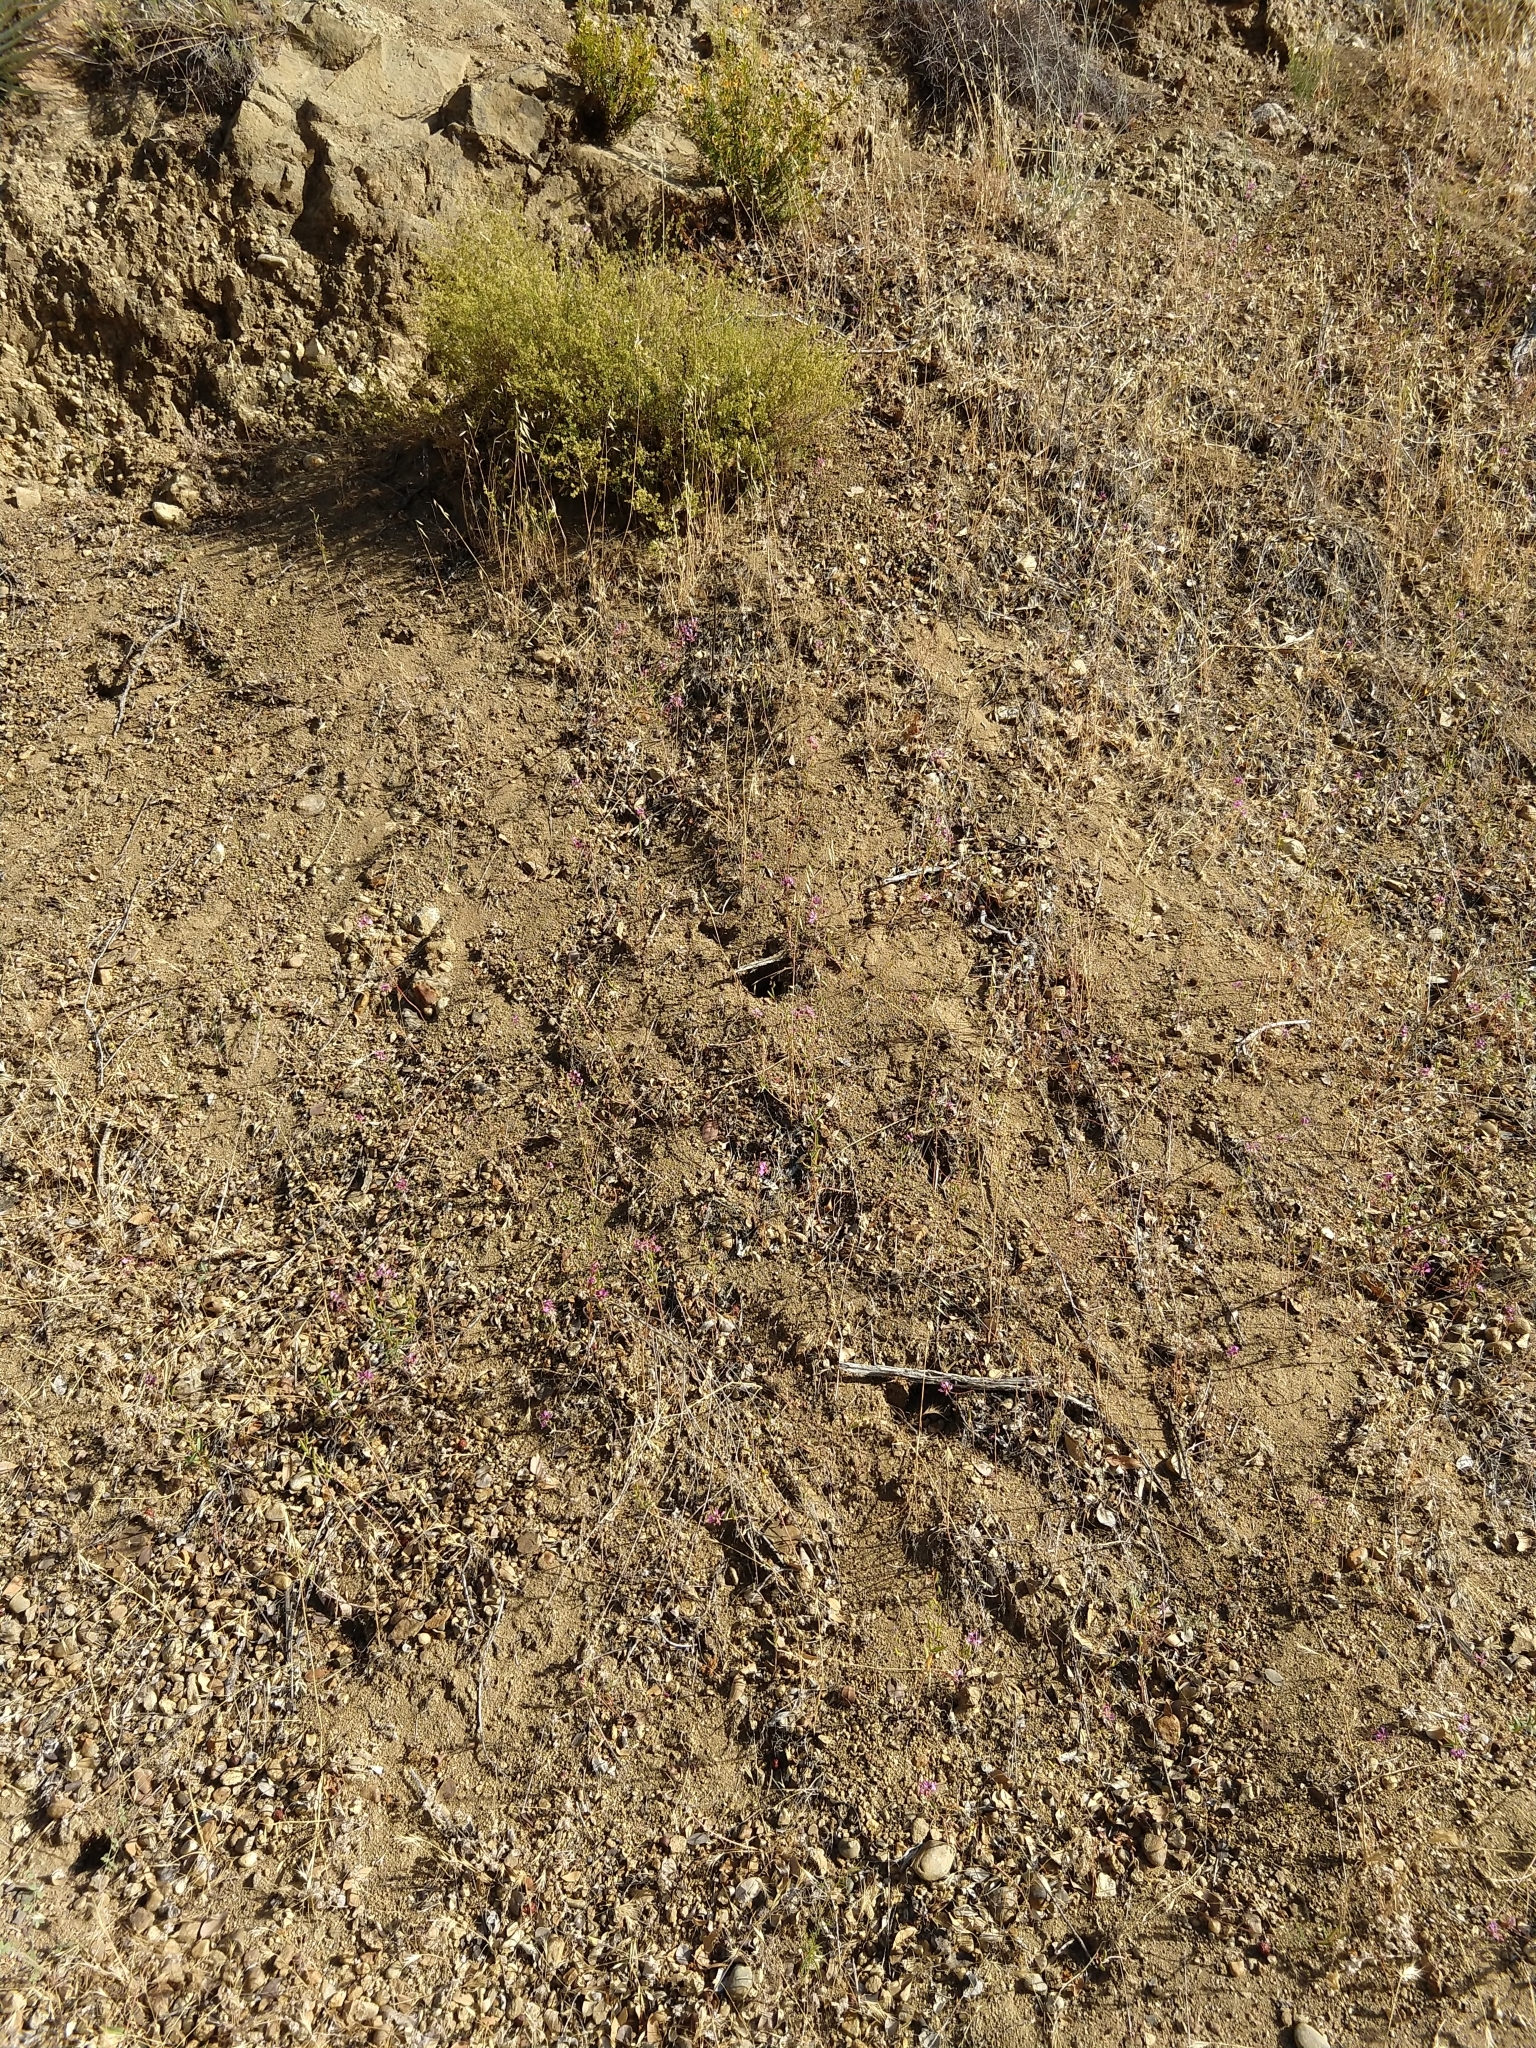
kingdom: Plantae
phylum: Tracheophyta
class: Magnoliopsida
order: Myrtales
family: Onagraceae
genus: Clarkia
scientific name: Clarkia unguiculata
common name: Clarkia
